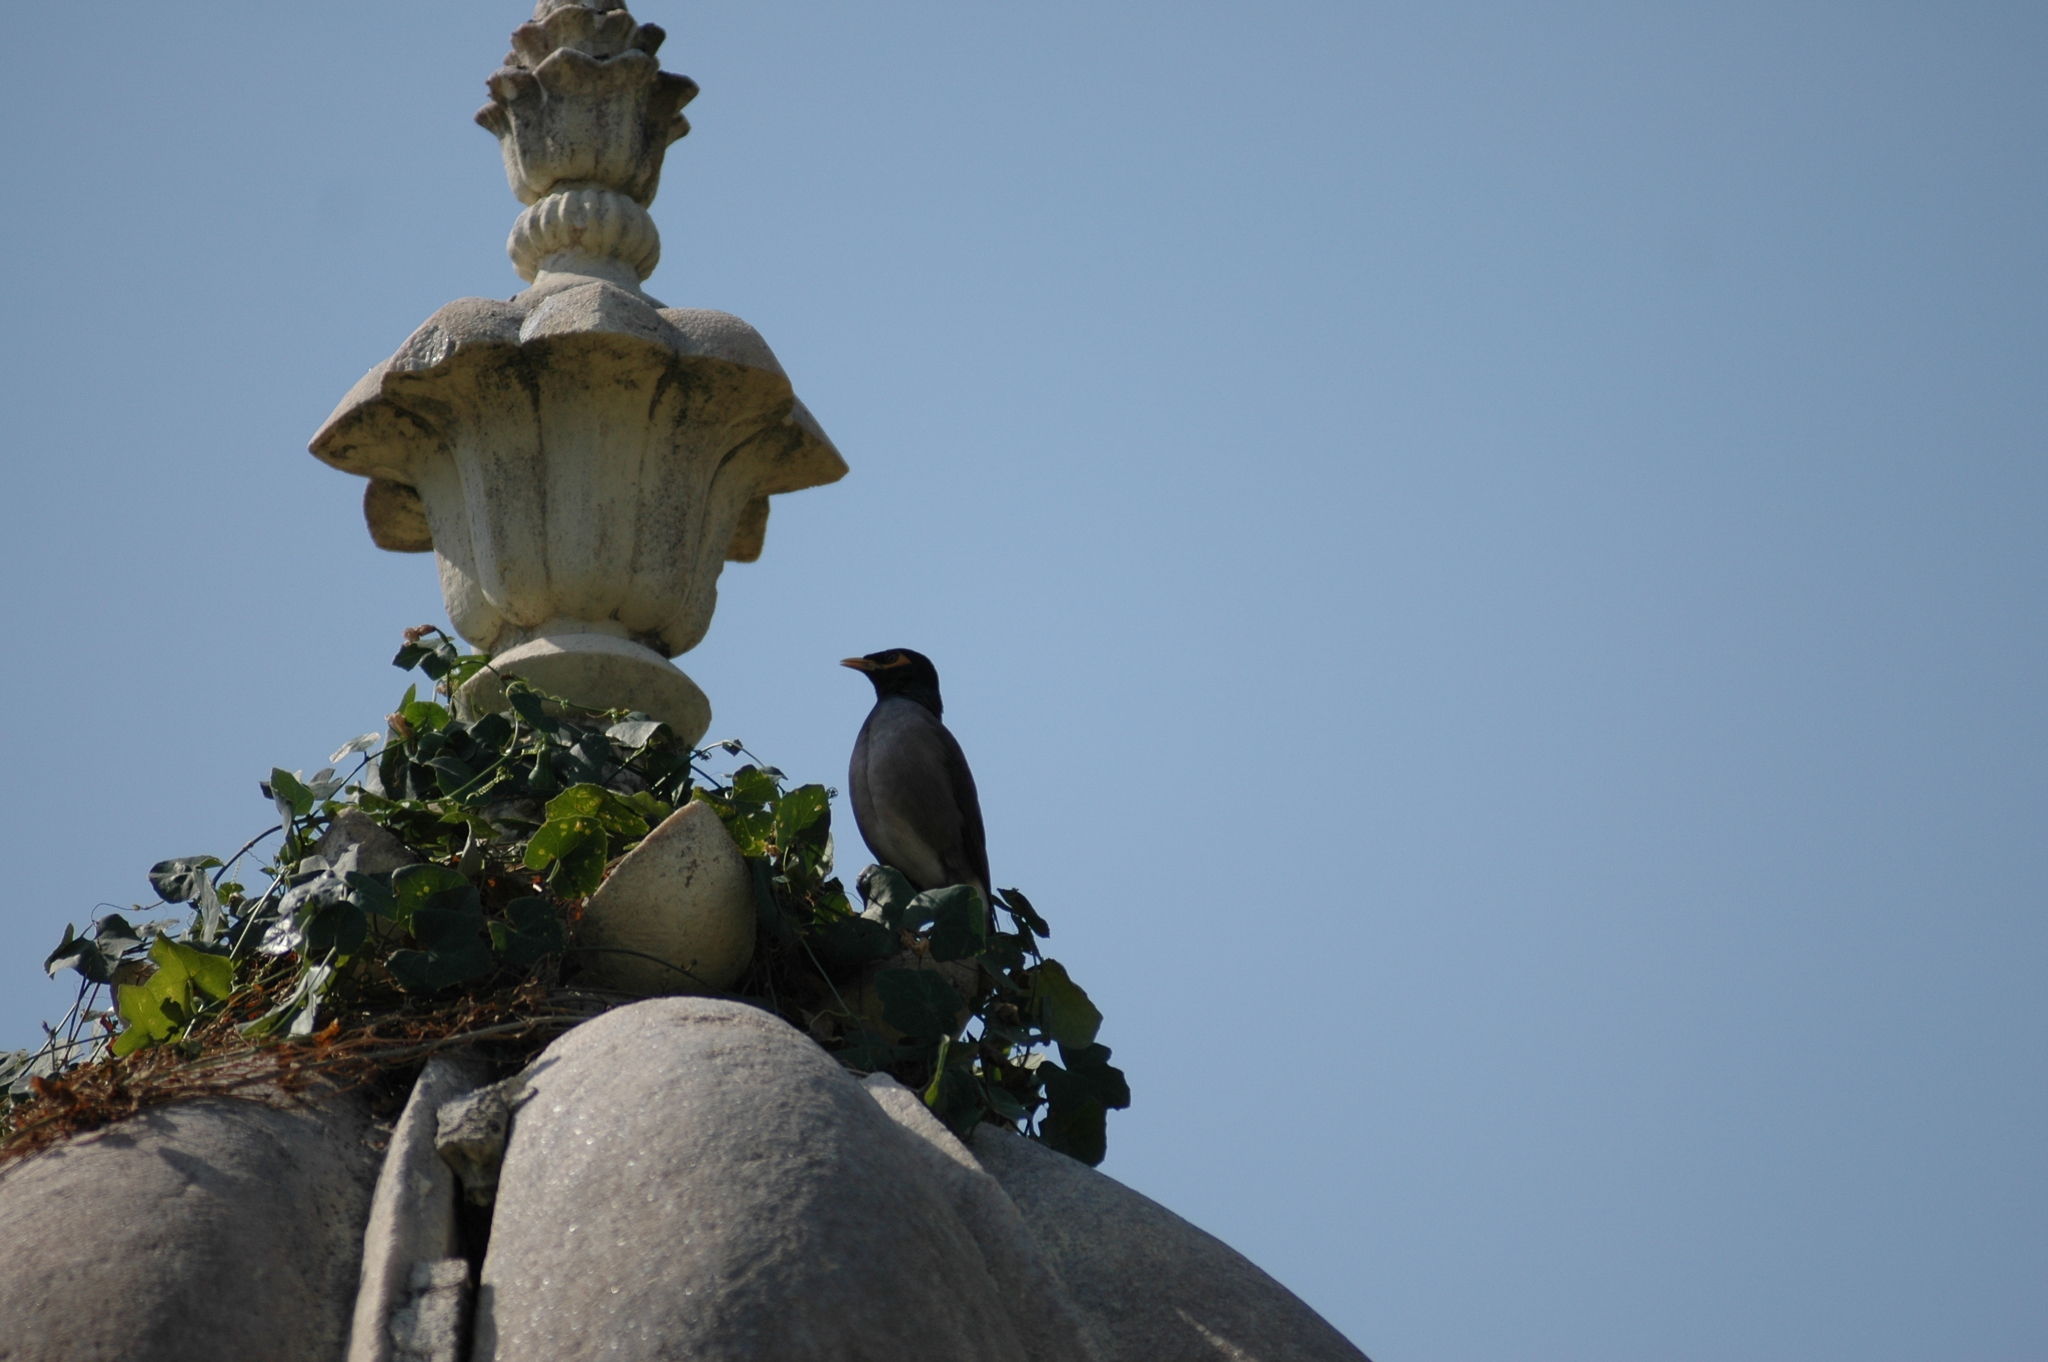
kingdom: Animalia
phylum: Chordata
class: Aves
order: Passeriformes
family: Sturnidae
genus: Acridotheres
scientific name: Acridotheres tristis
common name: Common myna
